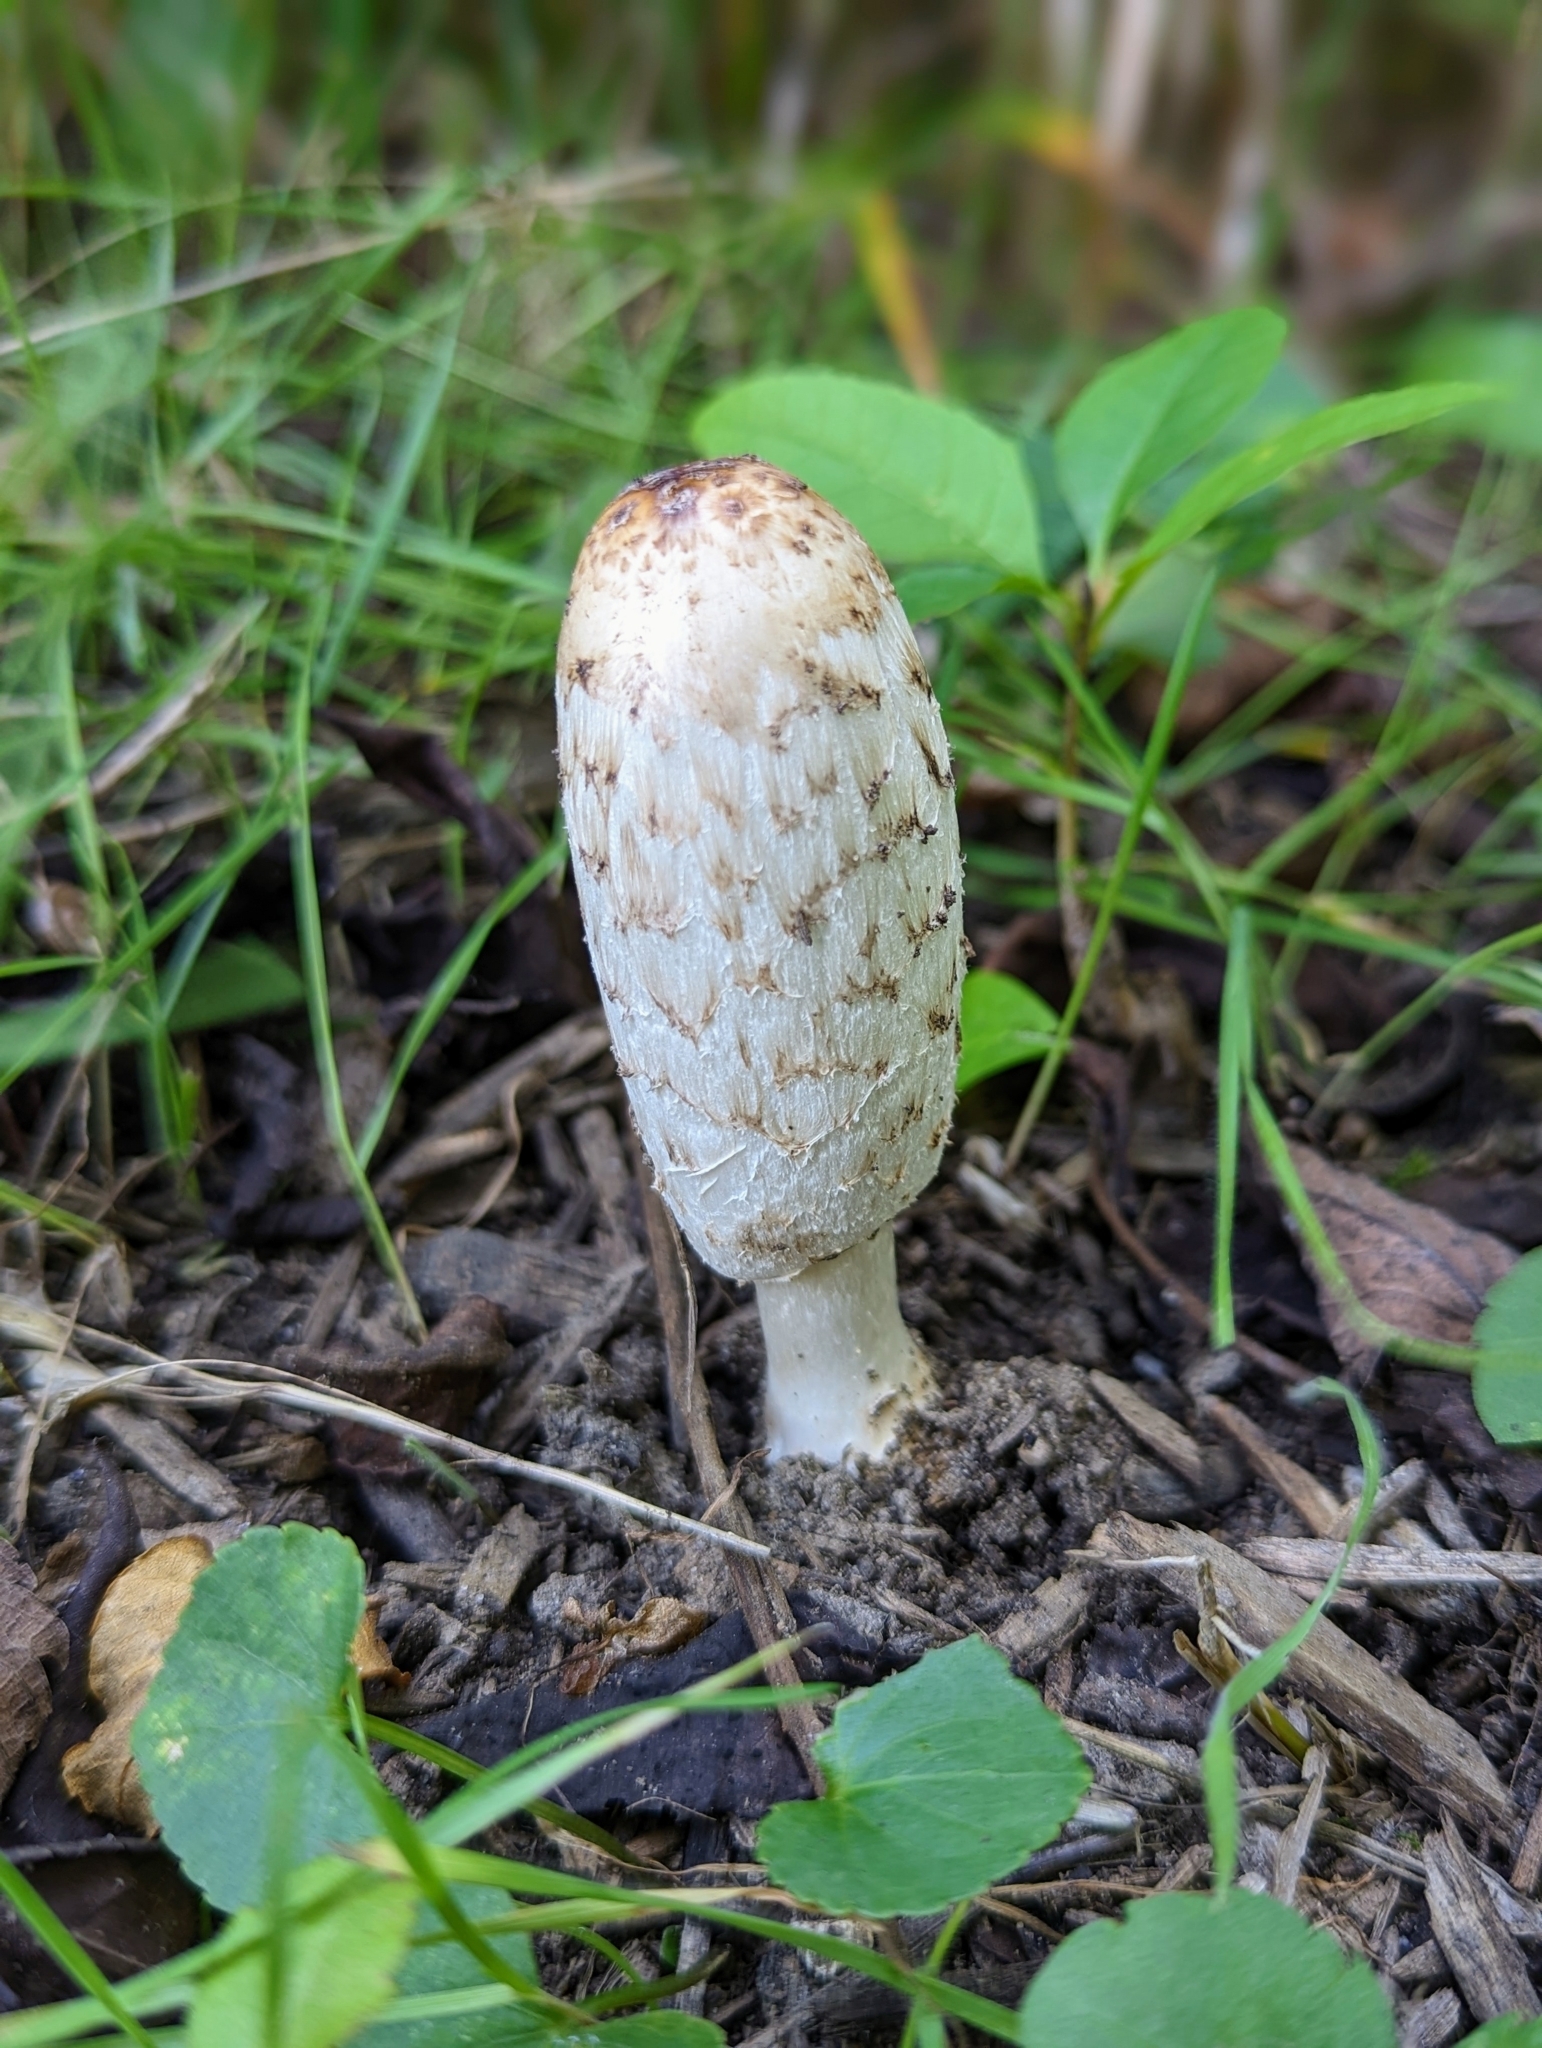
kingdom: Fungi
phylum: Basidiomycota
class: Agaricomycetes
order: Agaricales
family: Agaricaceae
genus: Coprinus
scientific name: Coprinus comatus
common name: Lawyer's wig
